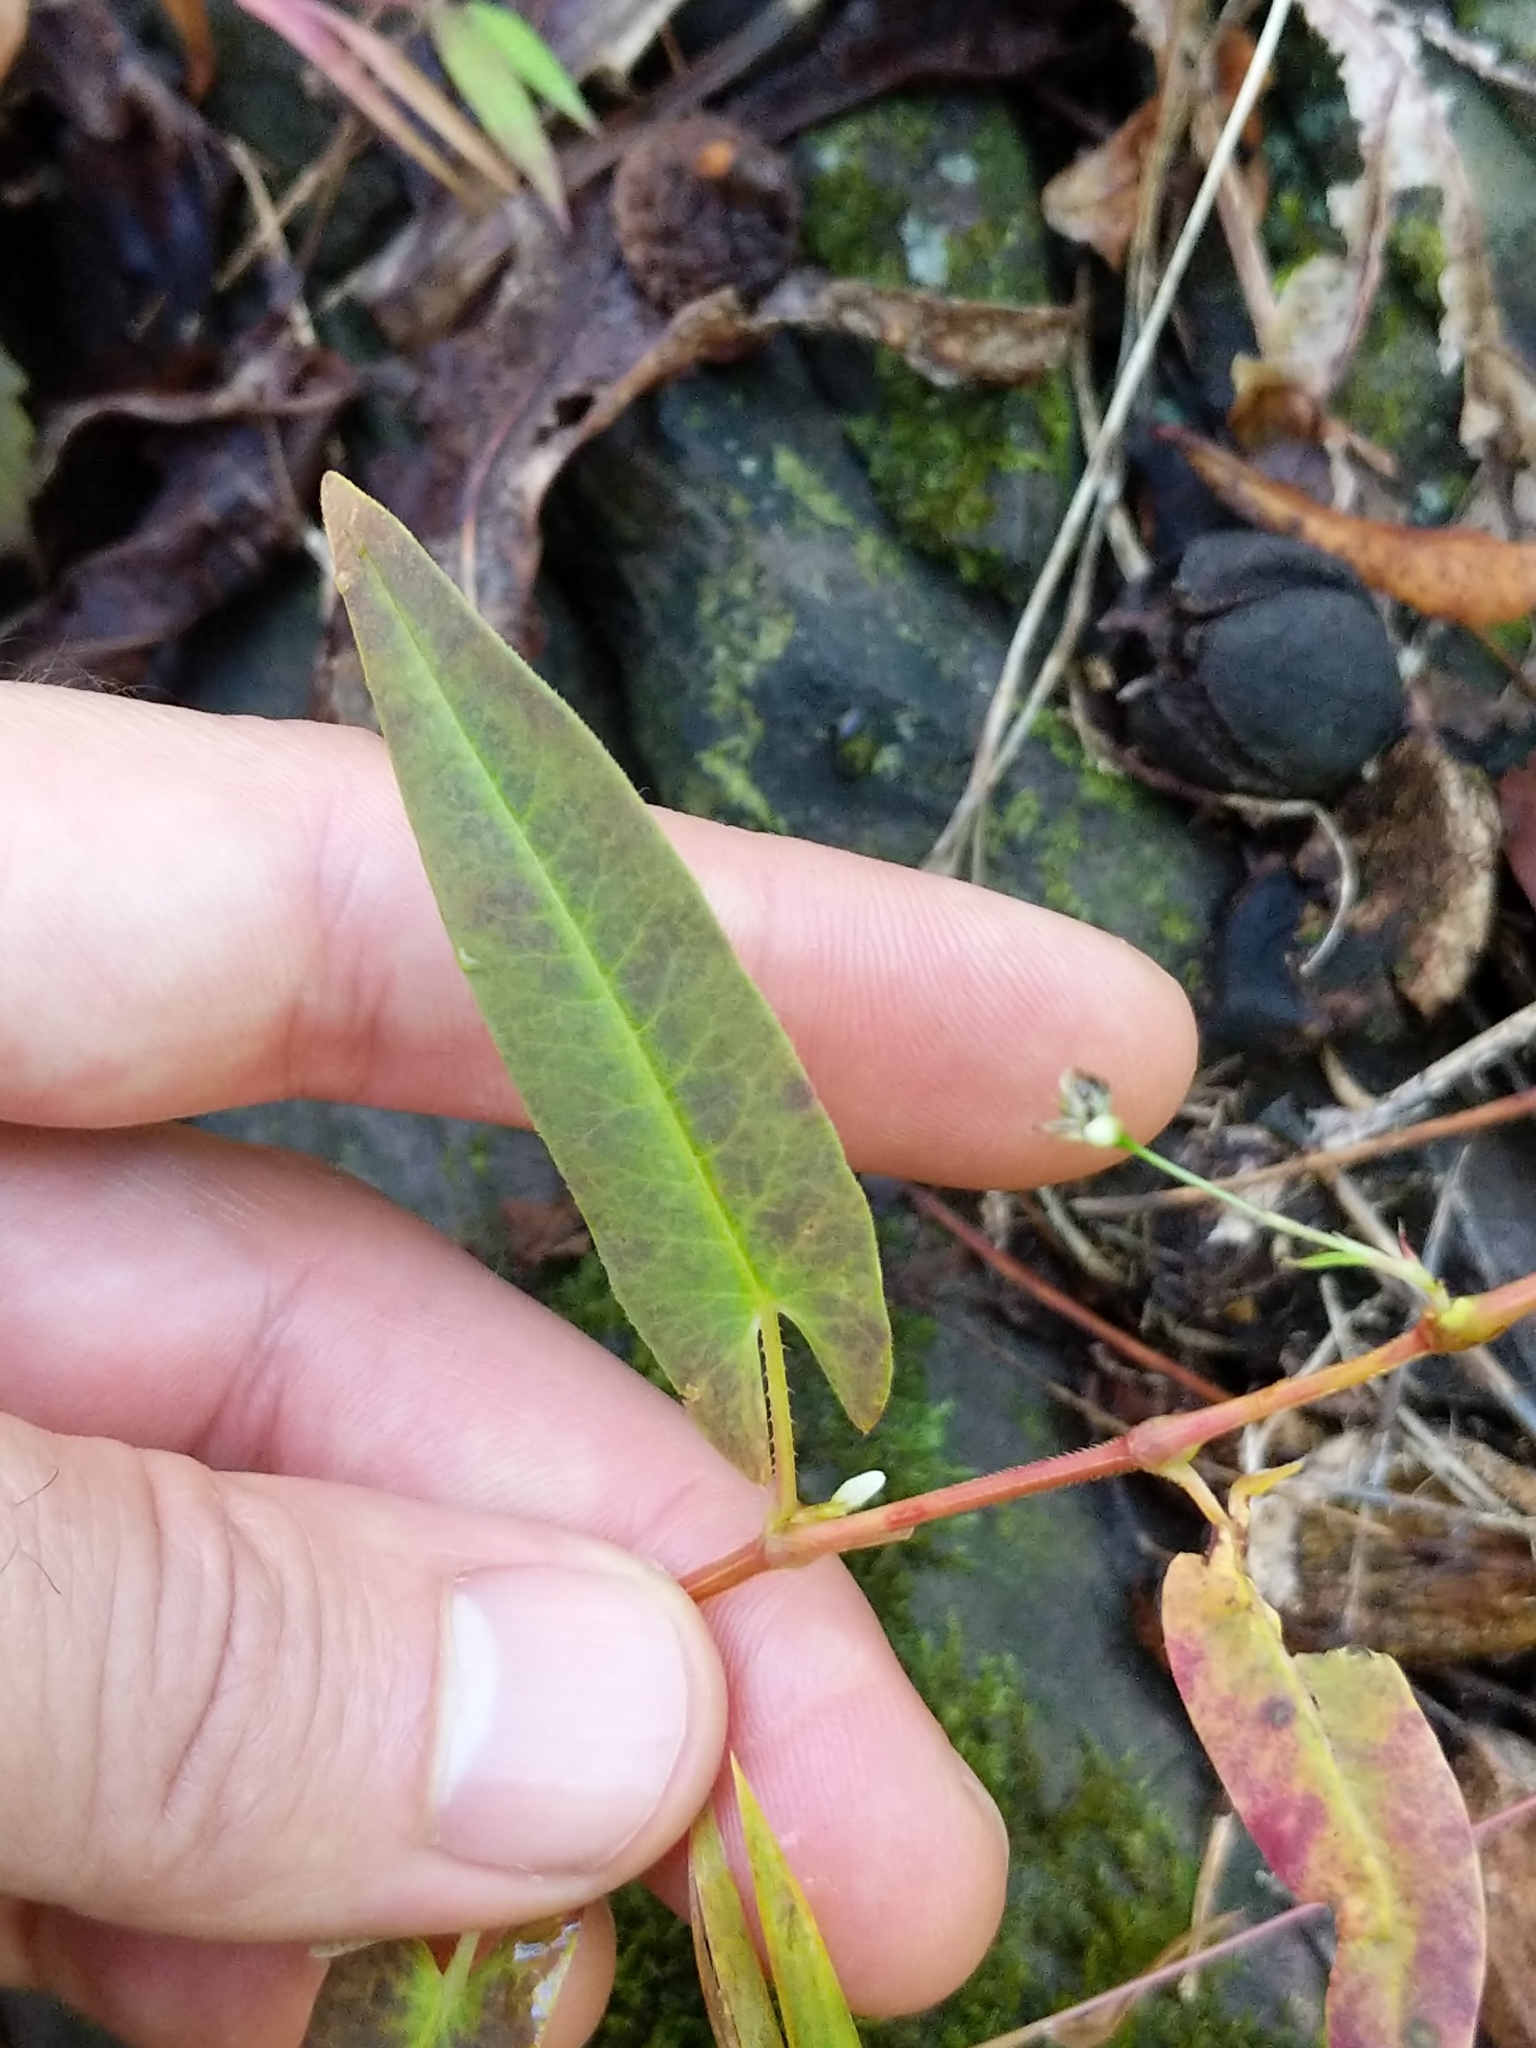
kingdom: Plantae
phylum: Tracheophyta
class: Magnoliopsida
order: Caryophyllales
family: Polygonaceae
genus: Persicaria
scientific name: Persicaria sagittata
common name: American tearthumb
